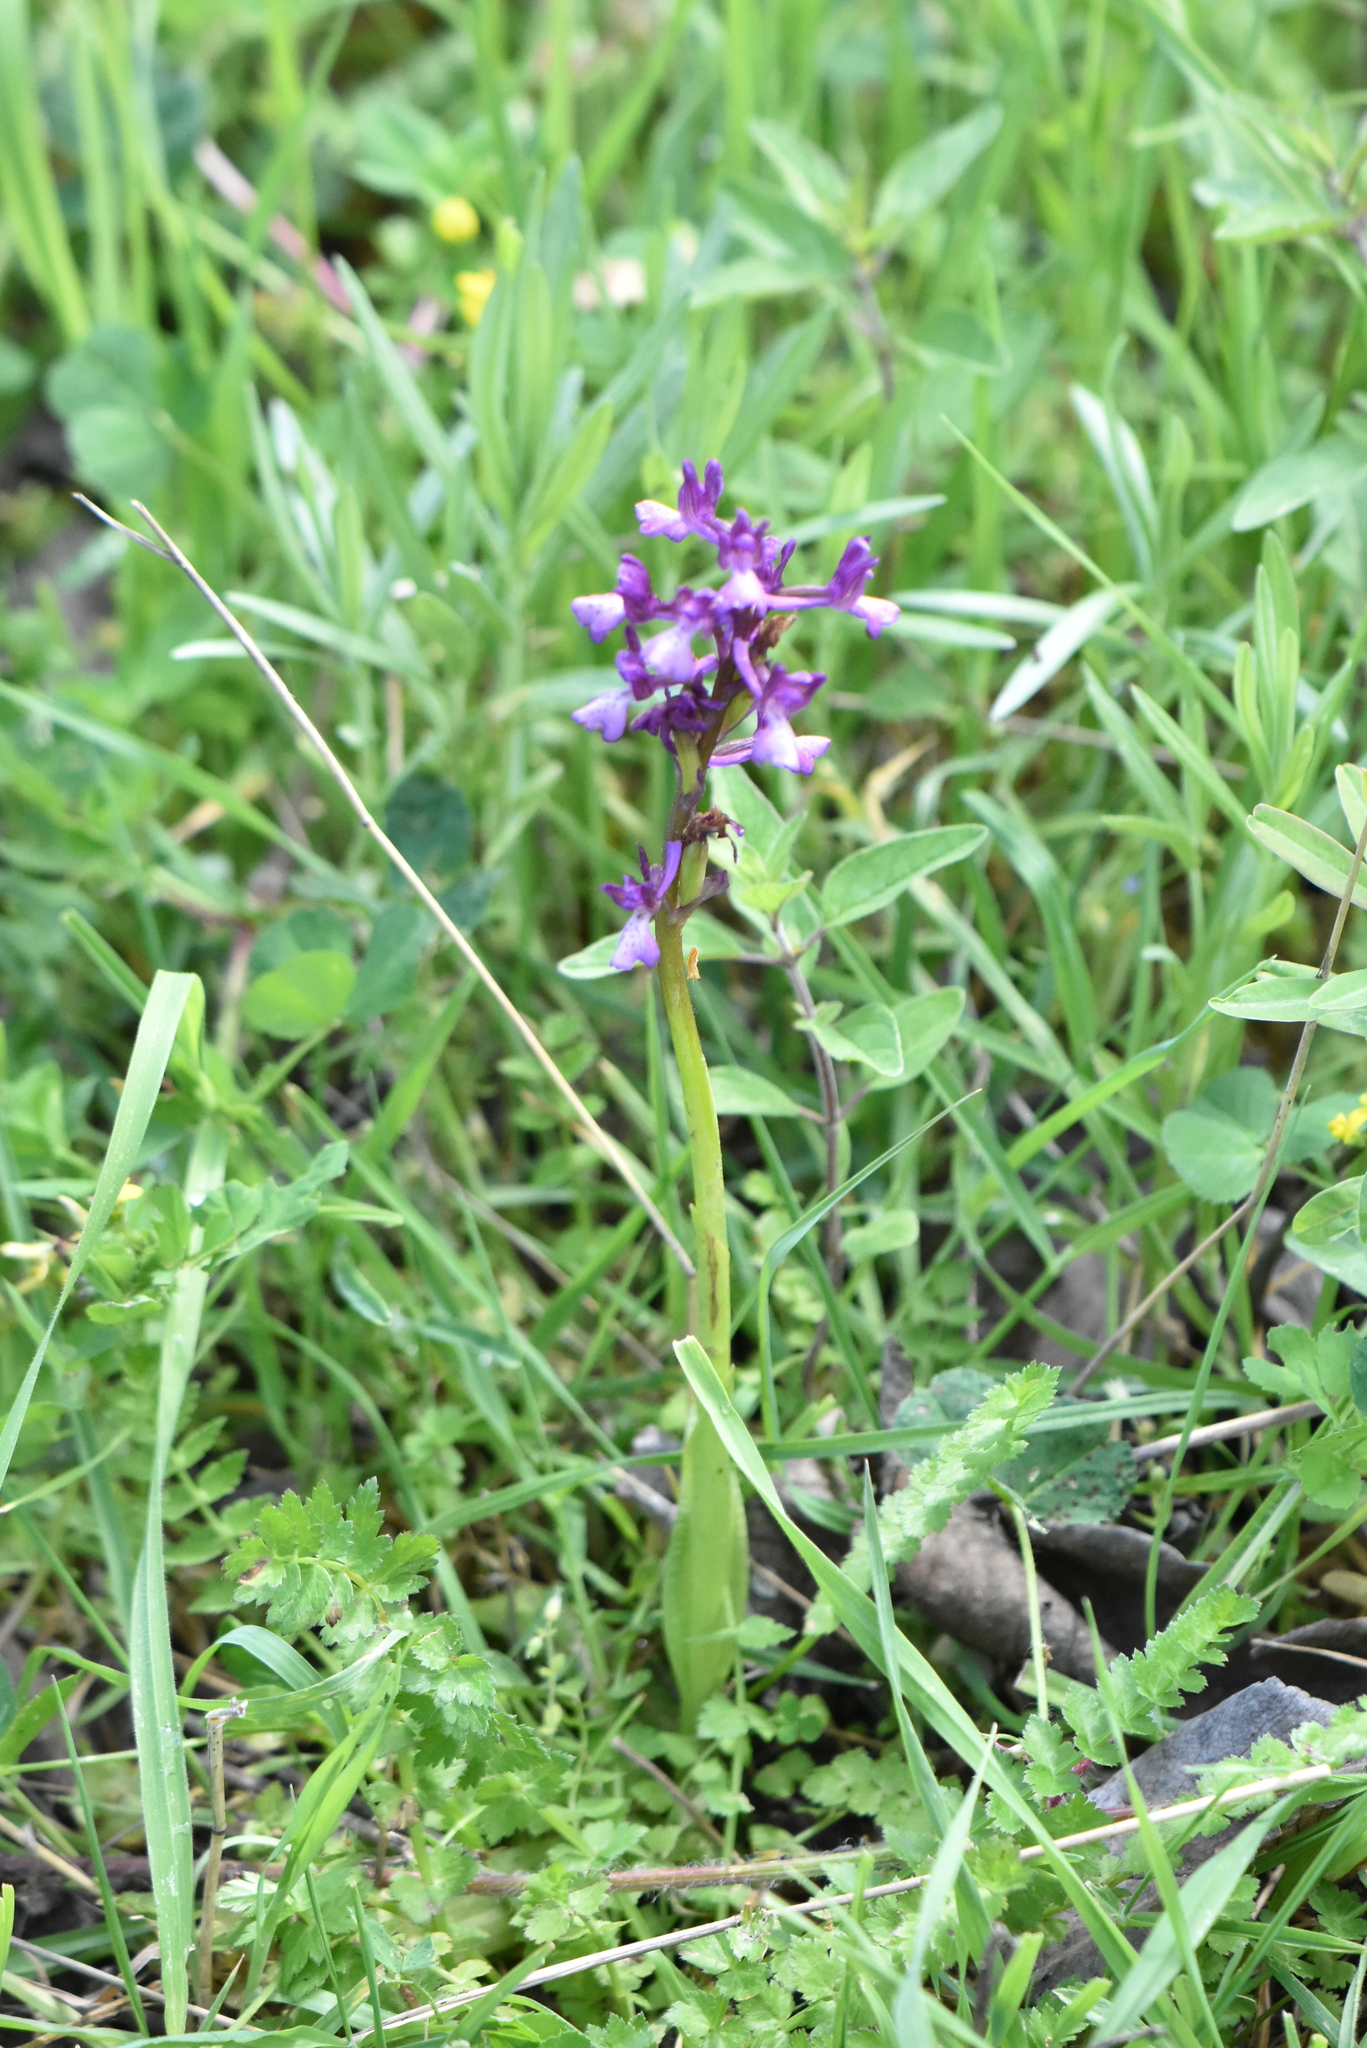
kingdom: Plantae
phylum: Tracheophyta
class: Liliopsida
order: Asparagales
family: Orchidaceae
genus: Anacamptis
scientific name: Anacamptis morio
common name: Green-winged orchid
